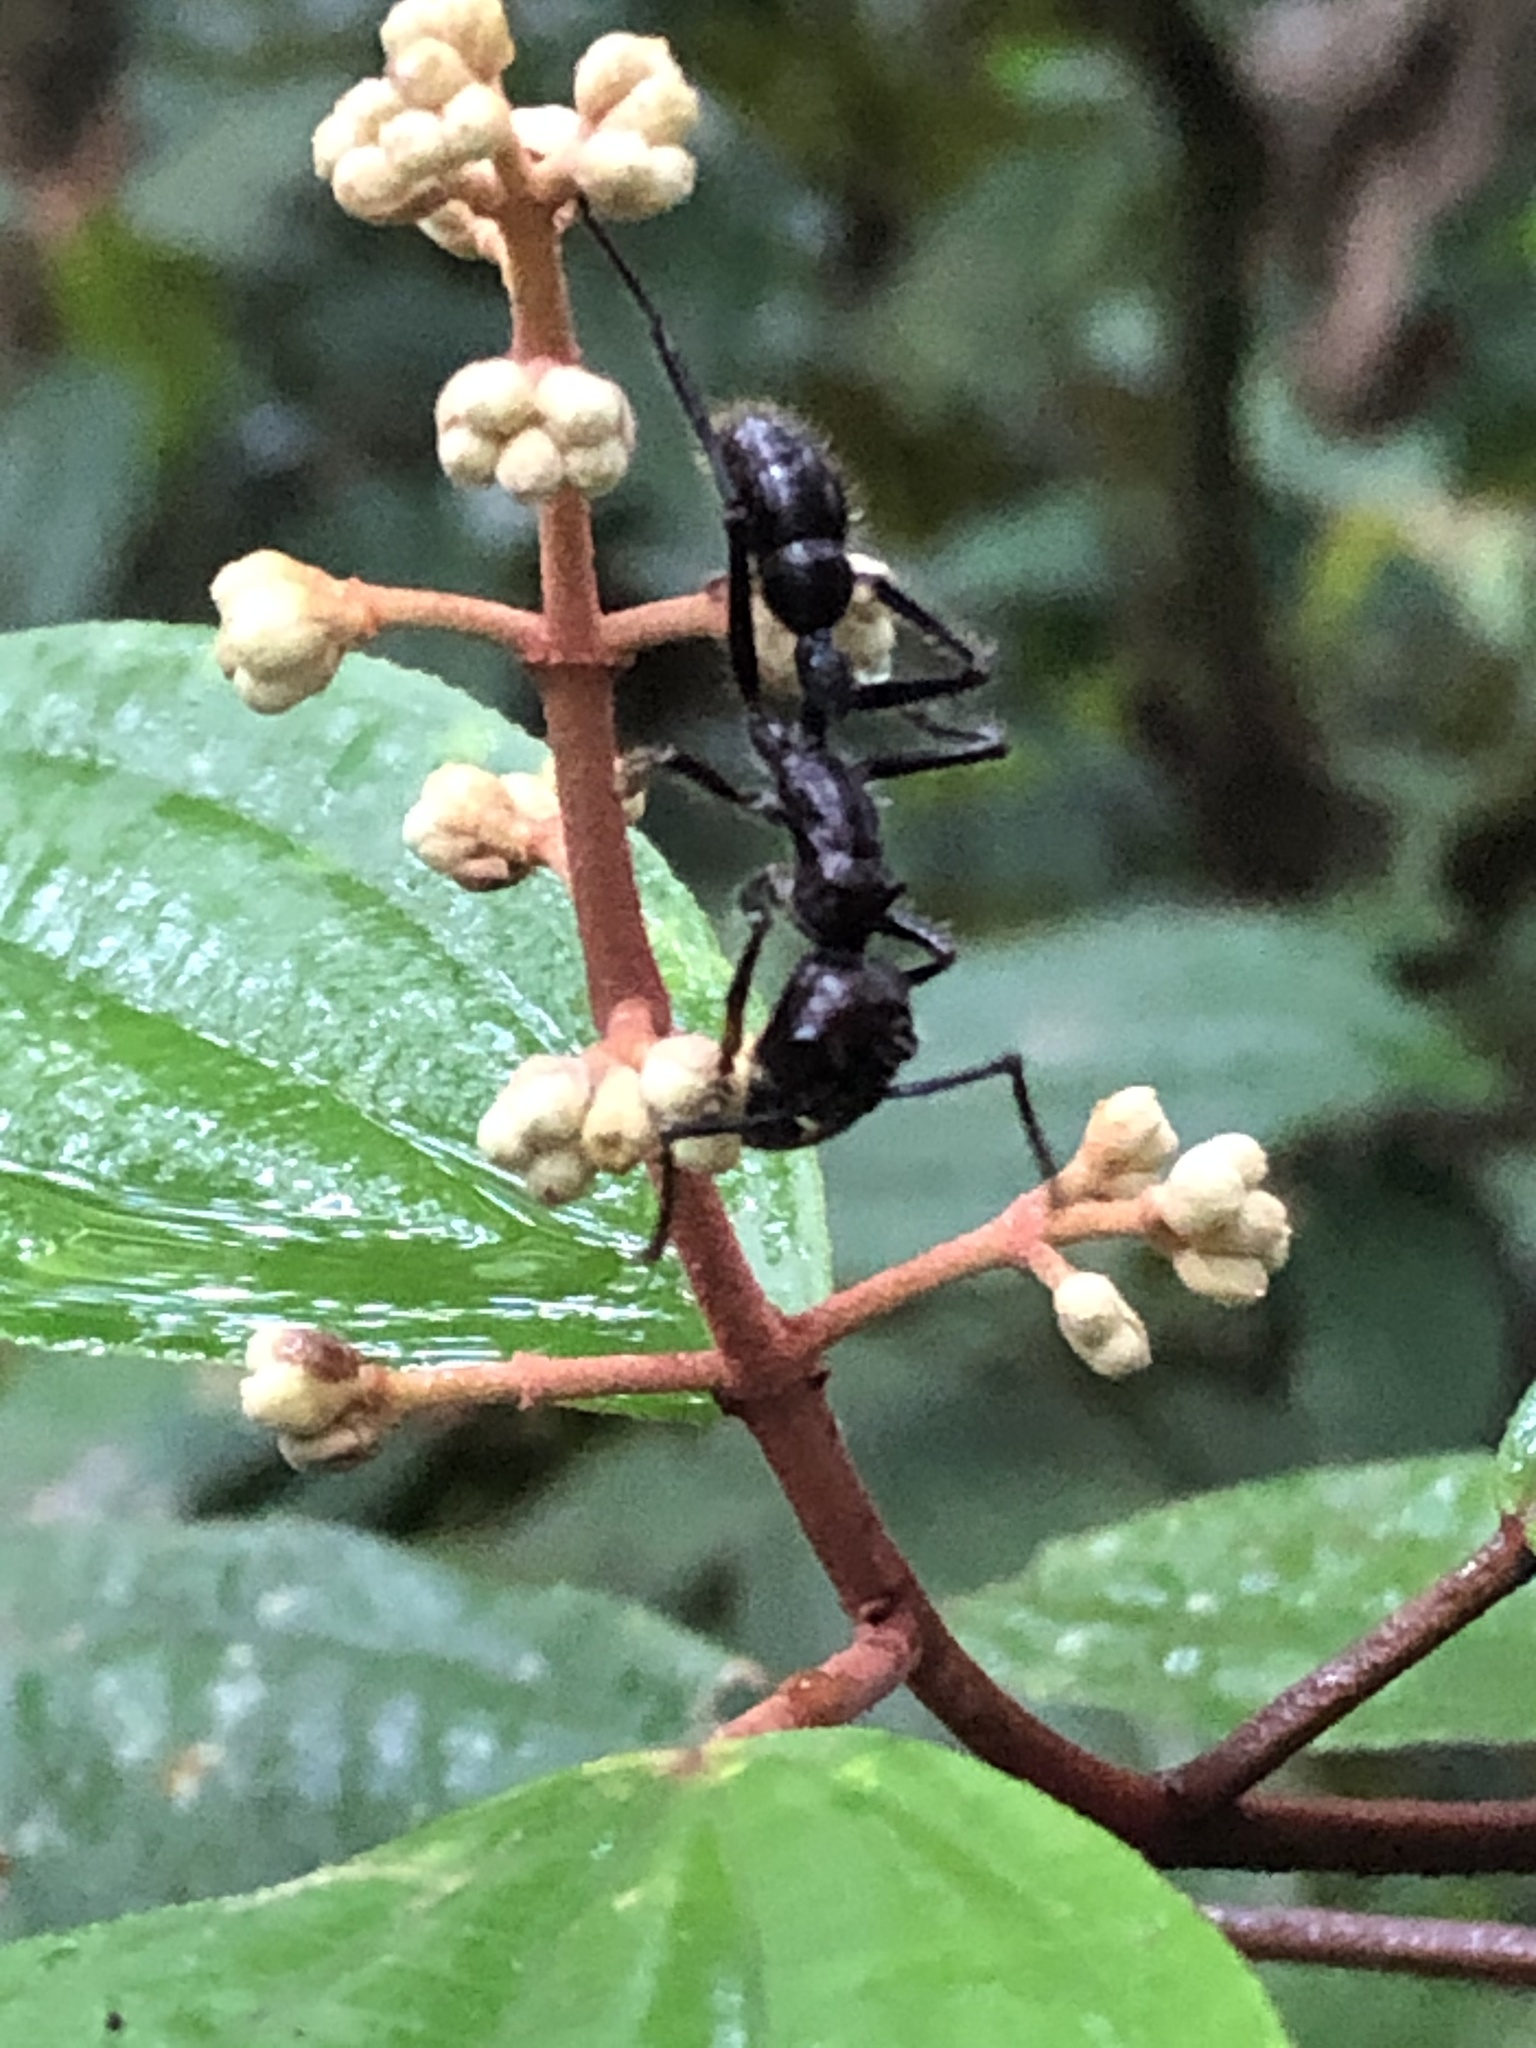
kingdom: Animalia
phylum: Arthropoda
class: Insecta
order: Hymenoptera
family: Formicidae
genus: Paraponera
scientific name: Paraponera clavata
